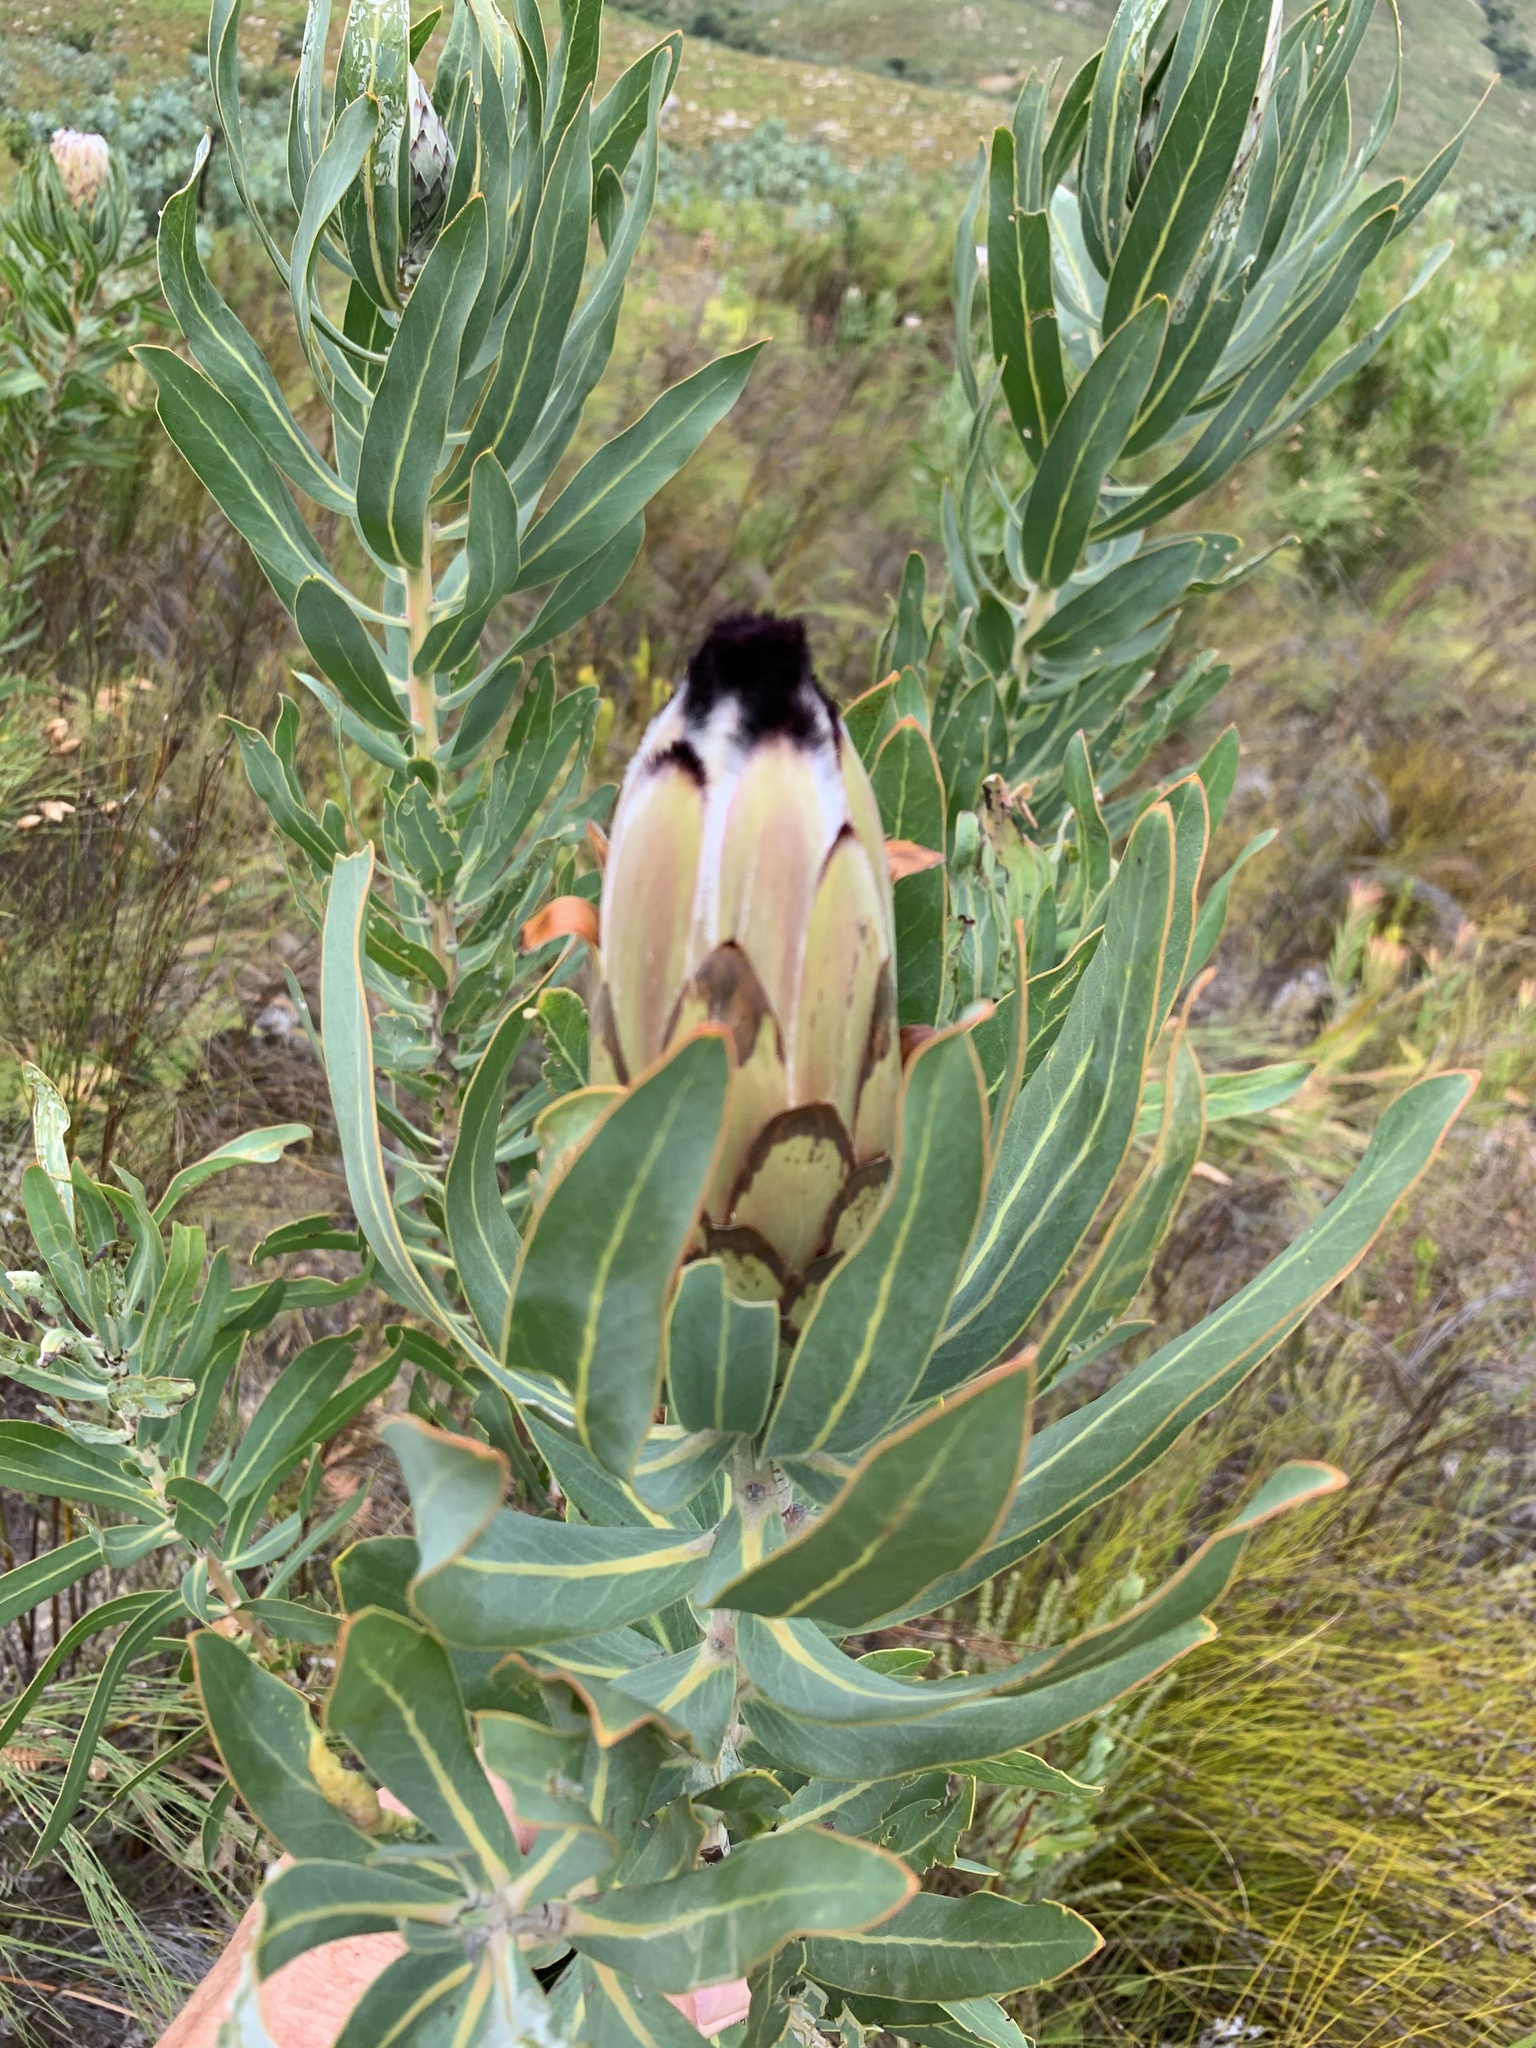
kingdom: Plantae
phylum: Tracheophyta
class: Magnoliopsida
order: Proteales
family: Proteaceae
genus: Protea
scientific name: Protea neriifolia
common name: Blue sugarbush
